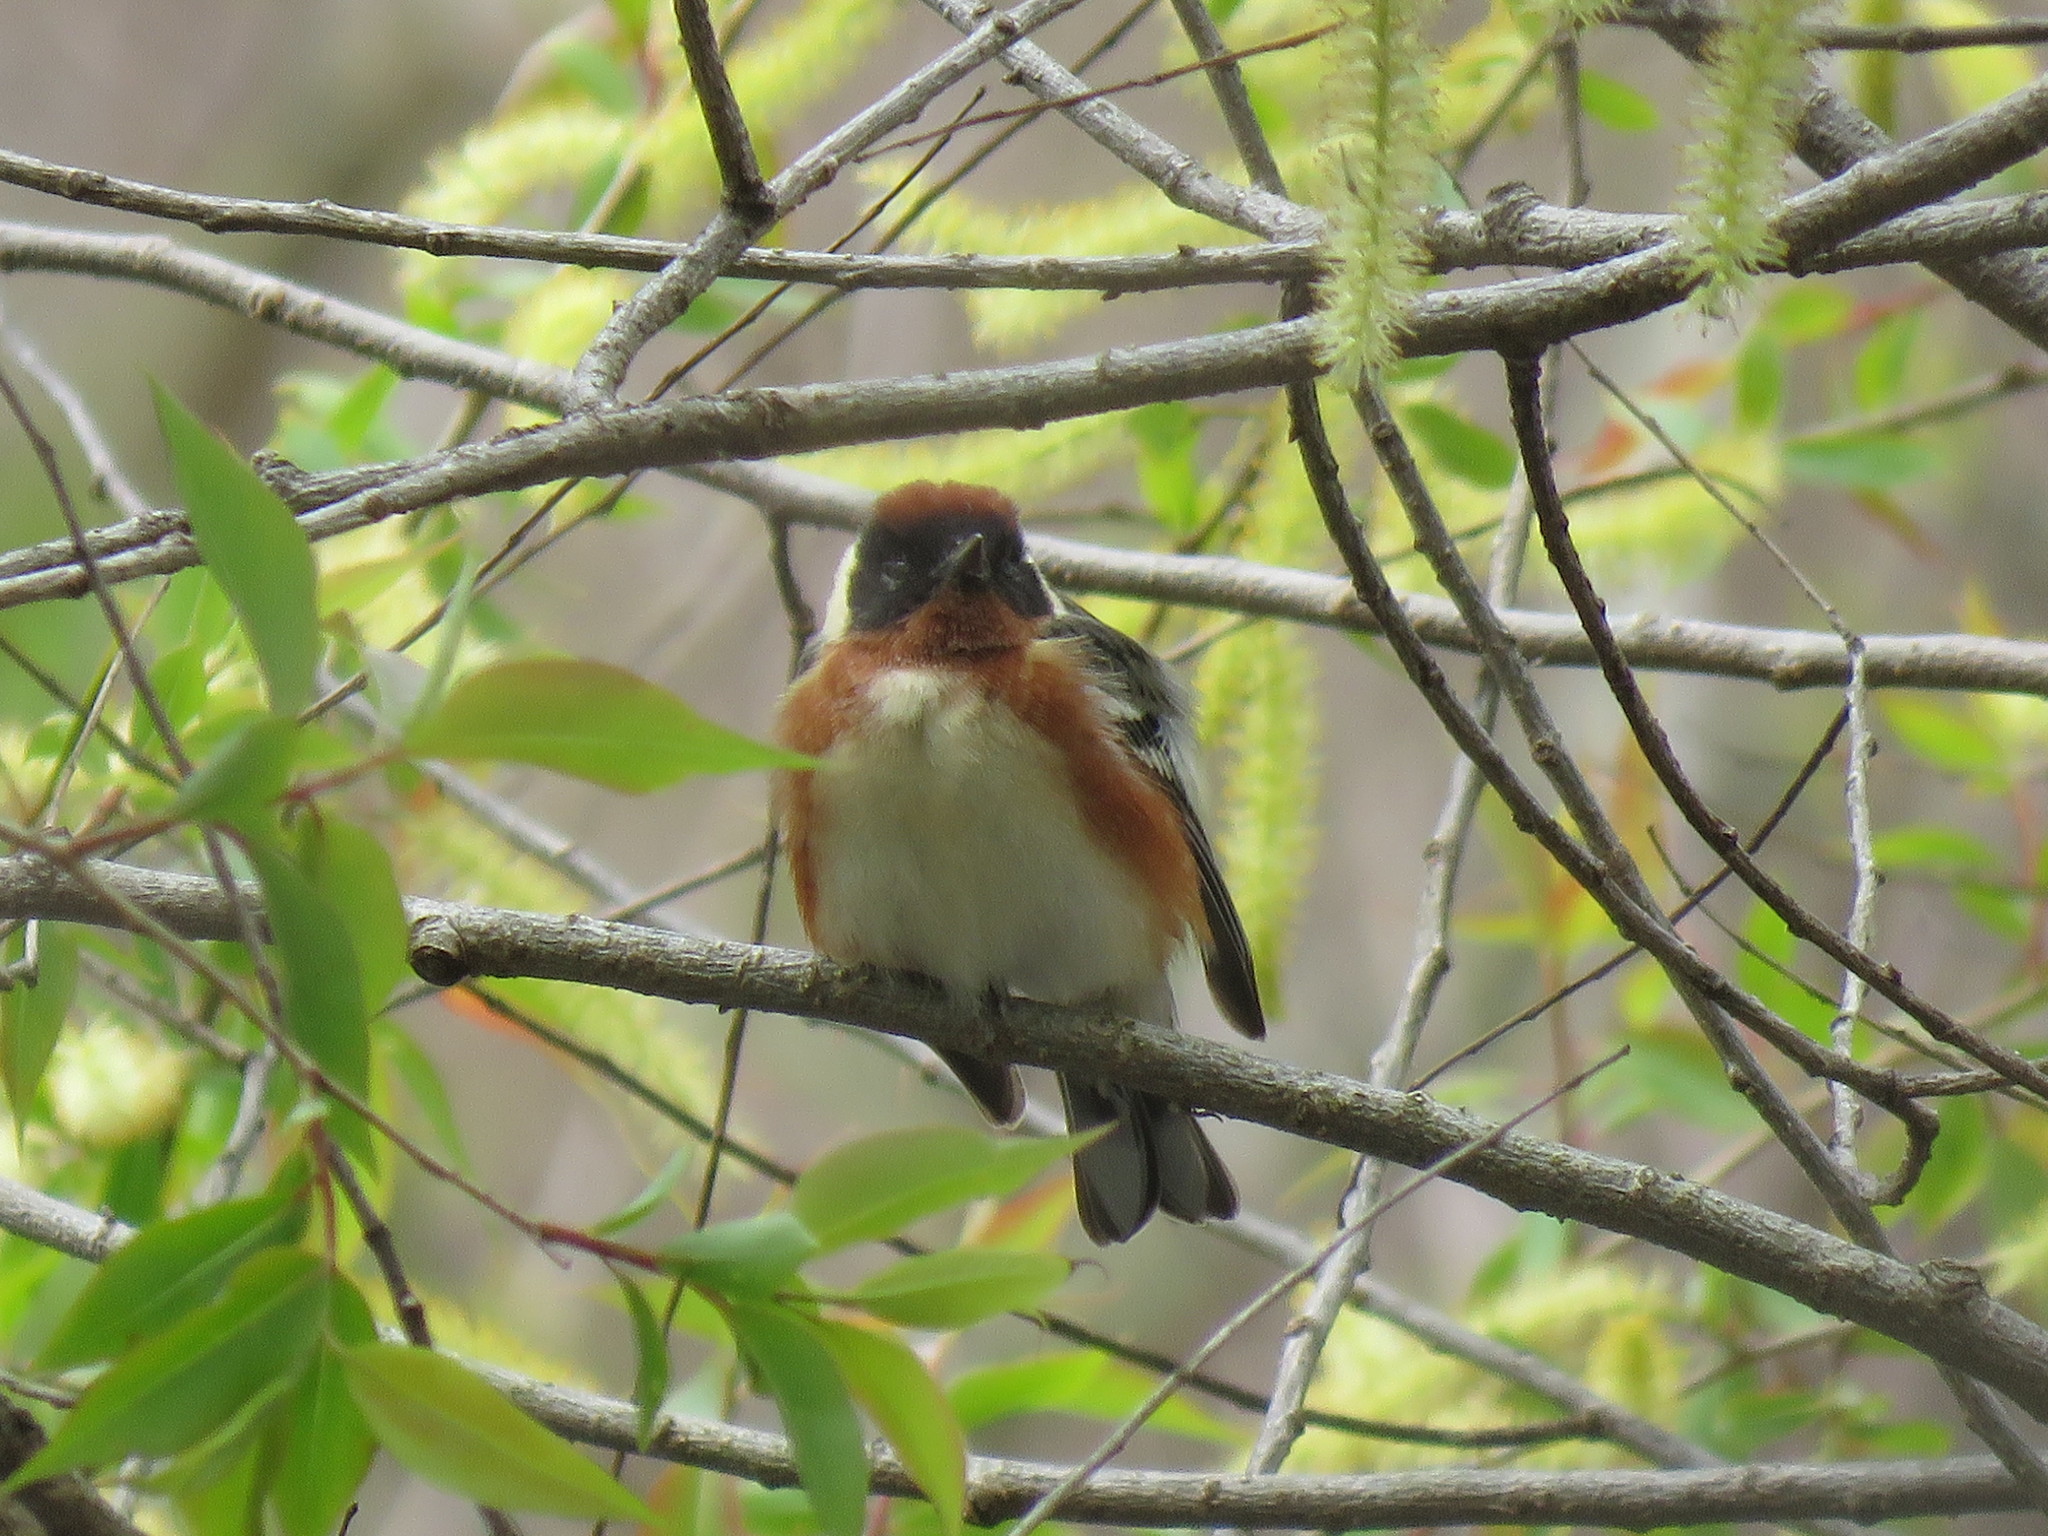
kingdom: Animalia
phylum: Chordata
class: Aves
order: Passeriformes
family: Parulidae
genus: Setophaga
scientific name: Setophaga castanea
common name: Bay-breasted warbler
